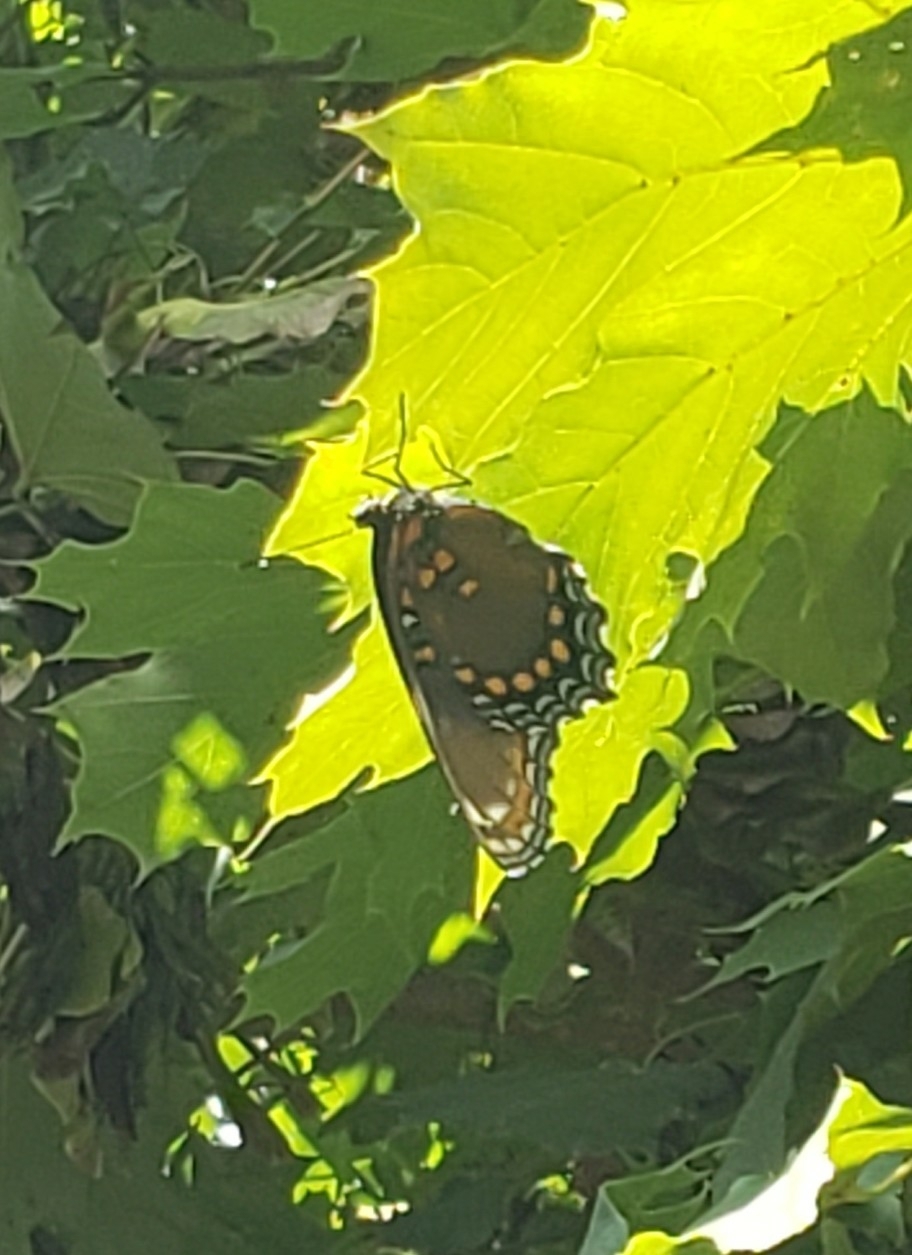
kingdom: Animalia
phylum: Arthropoda
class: Insecta
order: Lepidoptera
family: Nymphalidae
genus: Limenitis
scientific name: Limenitis astyanax
